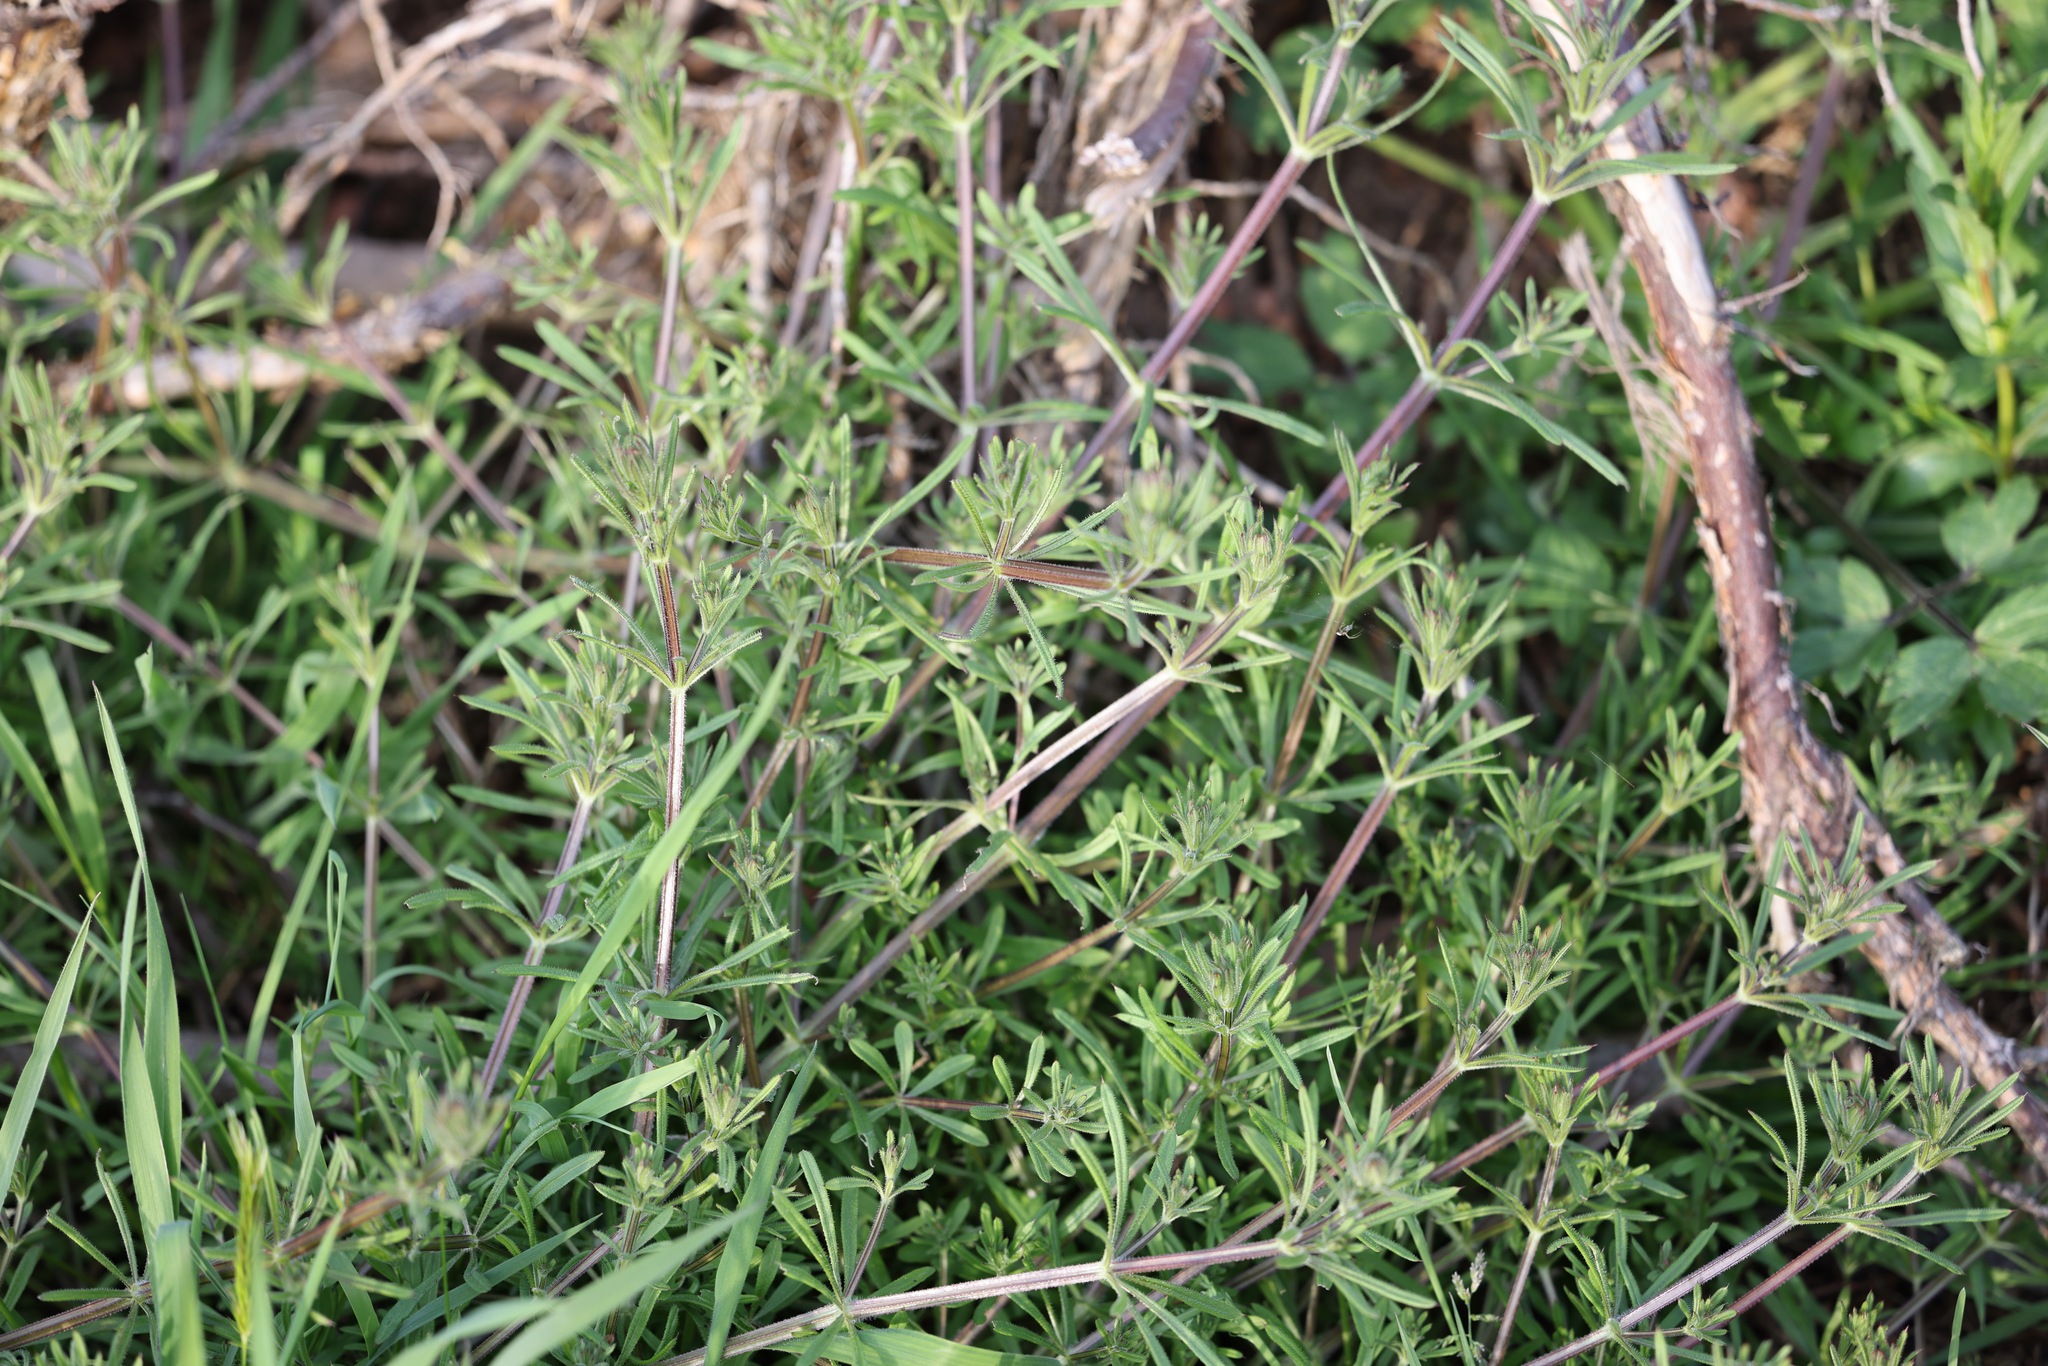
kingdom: Plantae
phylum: Tracheophyta
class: Magnoliopsida
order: Gentianales
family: Rubiaceae
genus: Galium
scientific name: Galium aparine
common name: Cleavers
